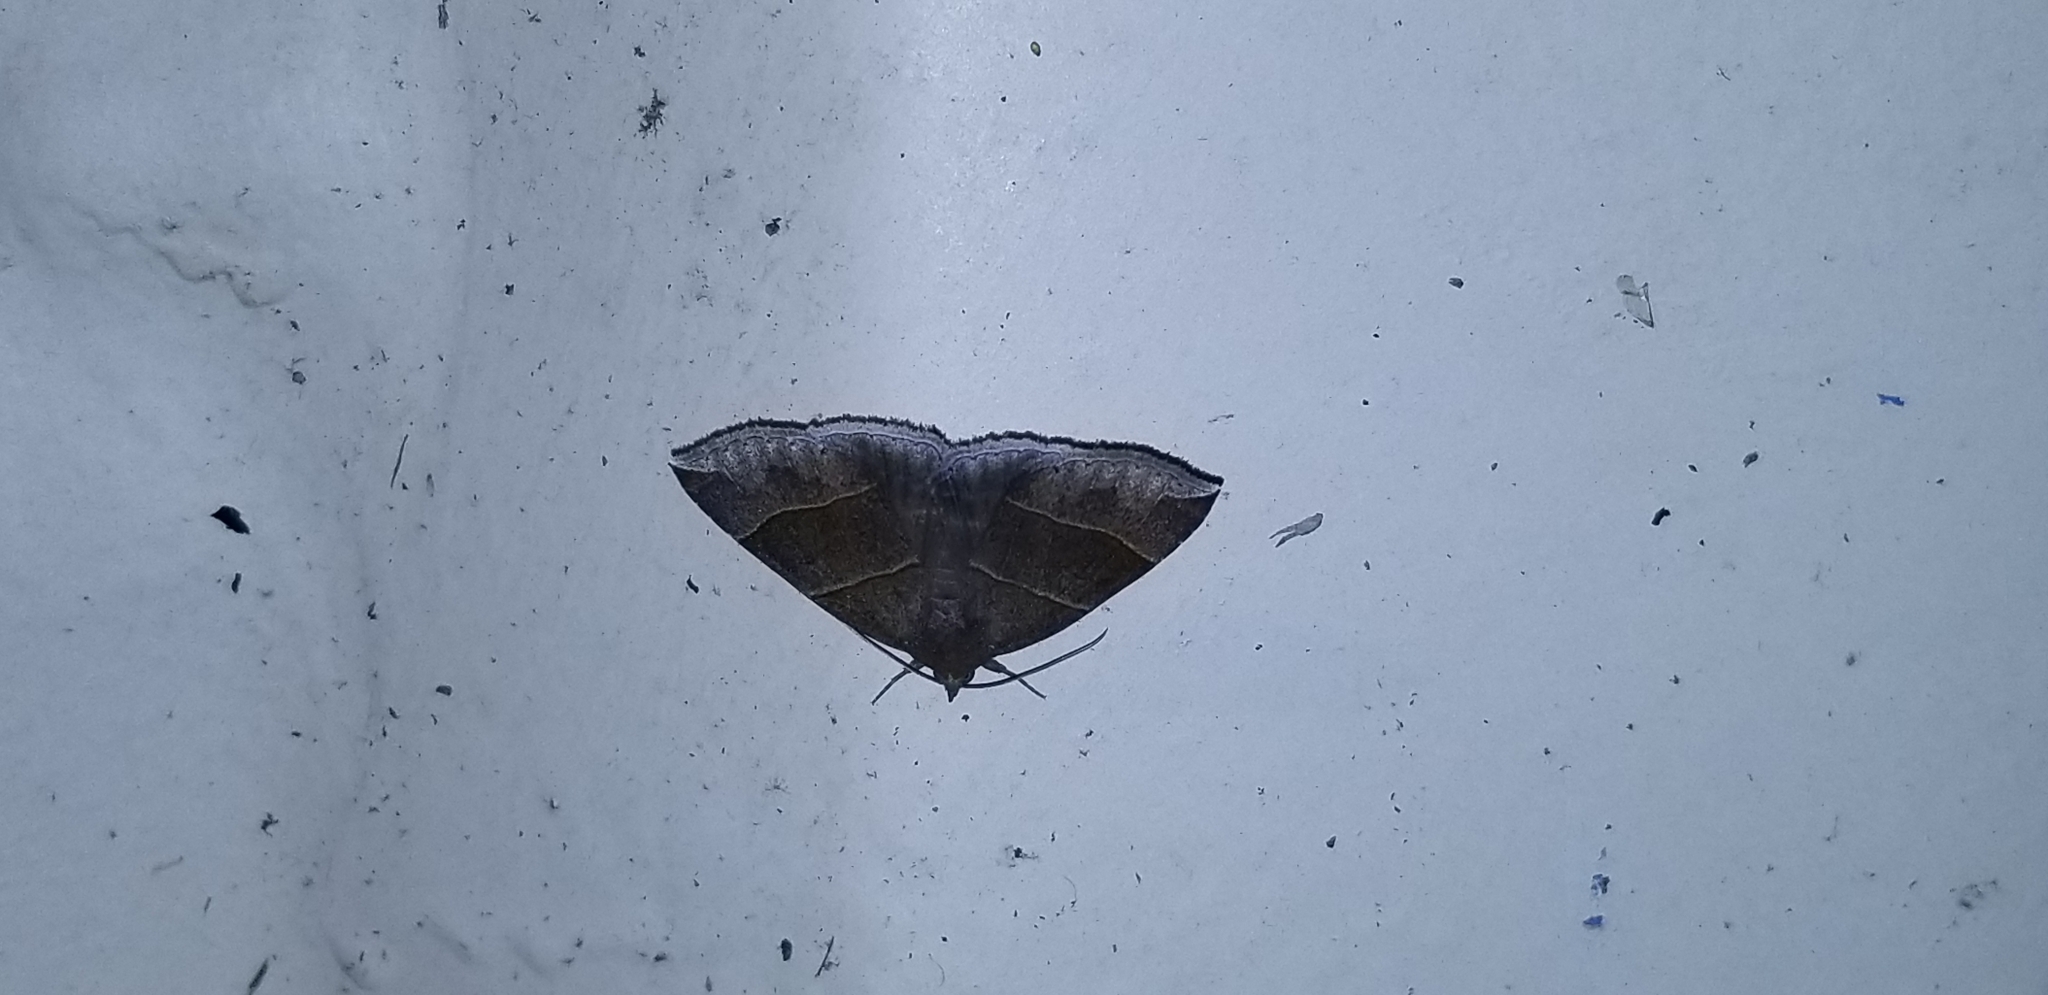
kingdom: Animalia
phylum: Arthropoda
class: Insecta
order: Lepidoptera
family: Erebidae
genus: Parallelia
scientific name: Parallelia bistriaris
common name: Maple looper moth
